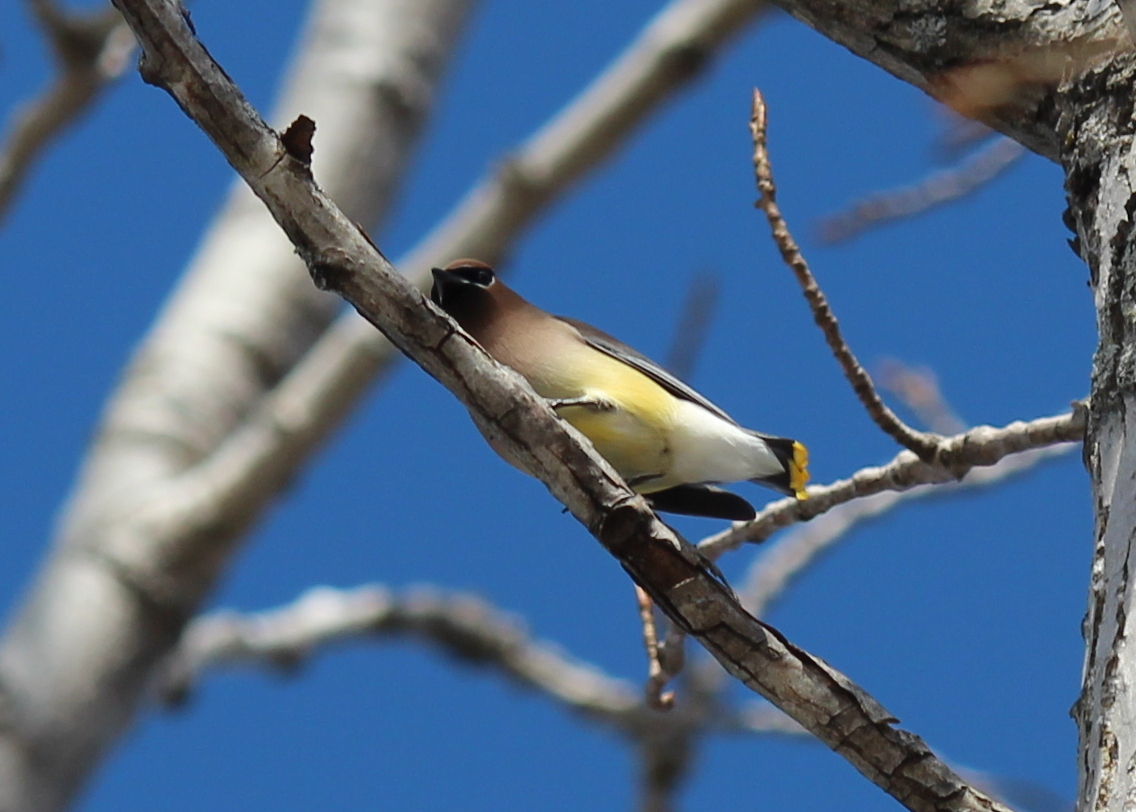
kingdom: Animalia
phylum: Chordata
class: Aves
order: Passeriformes
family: Bombycillidae
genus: Bombycilla
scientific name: Bombycilla cedrorum
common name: Cedar waxwing
